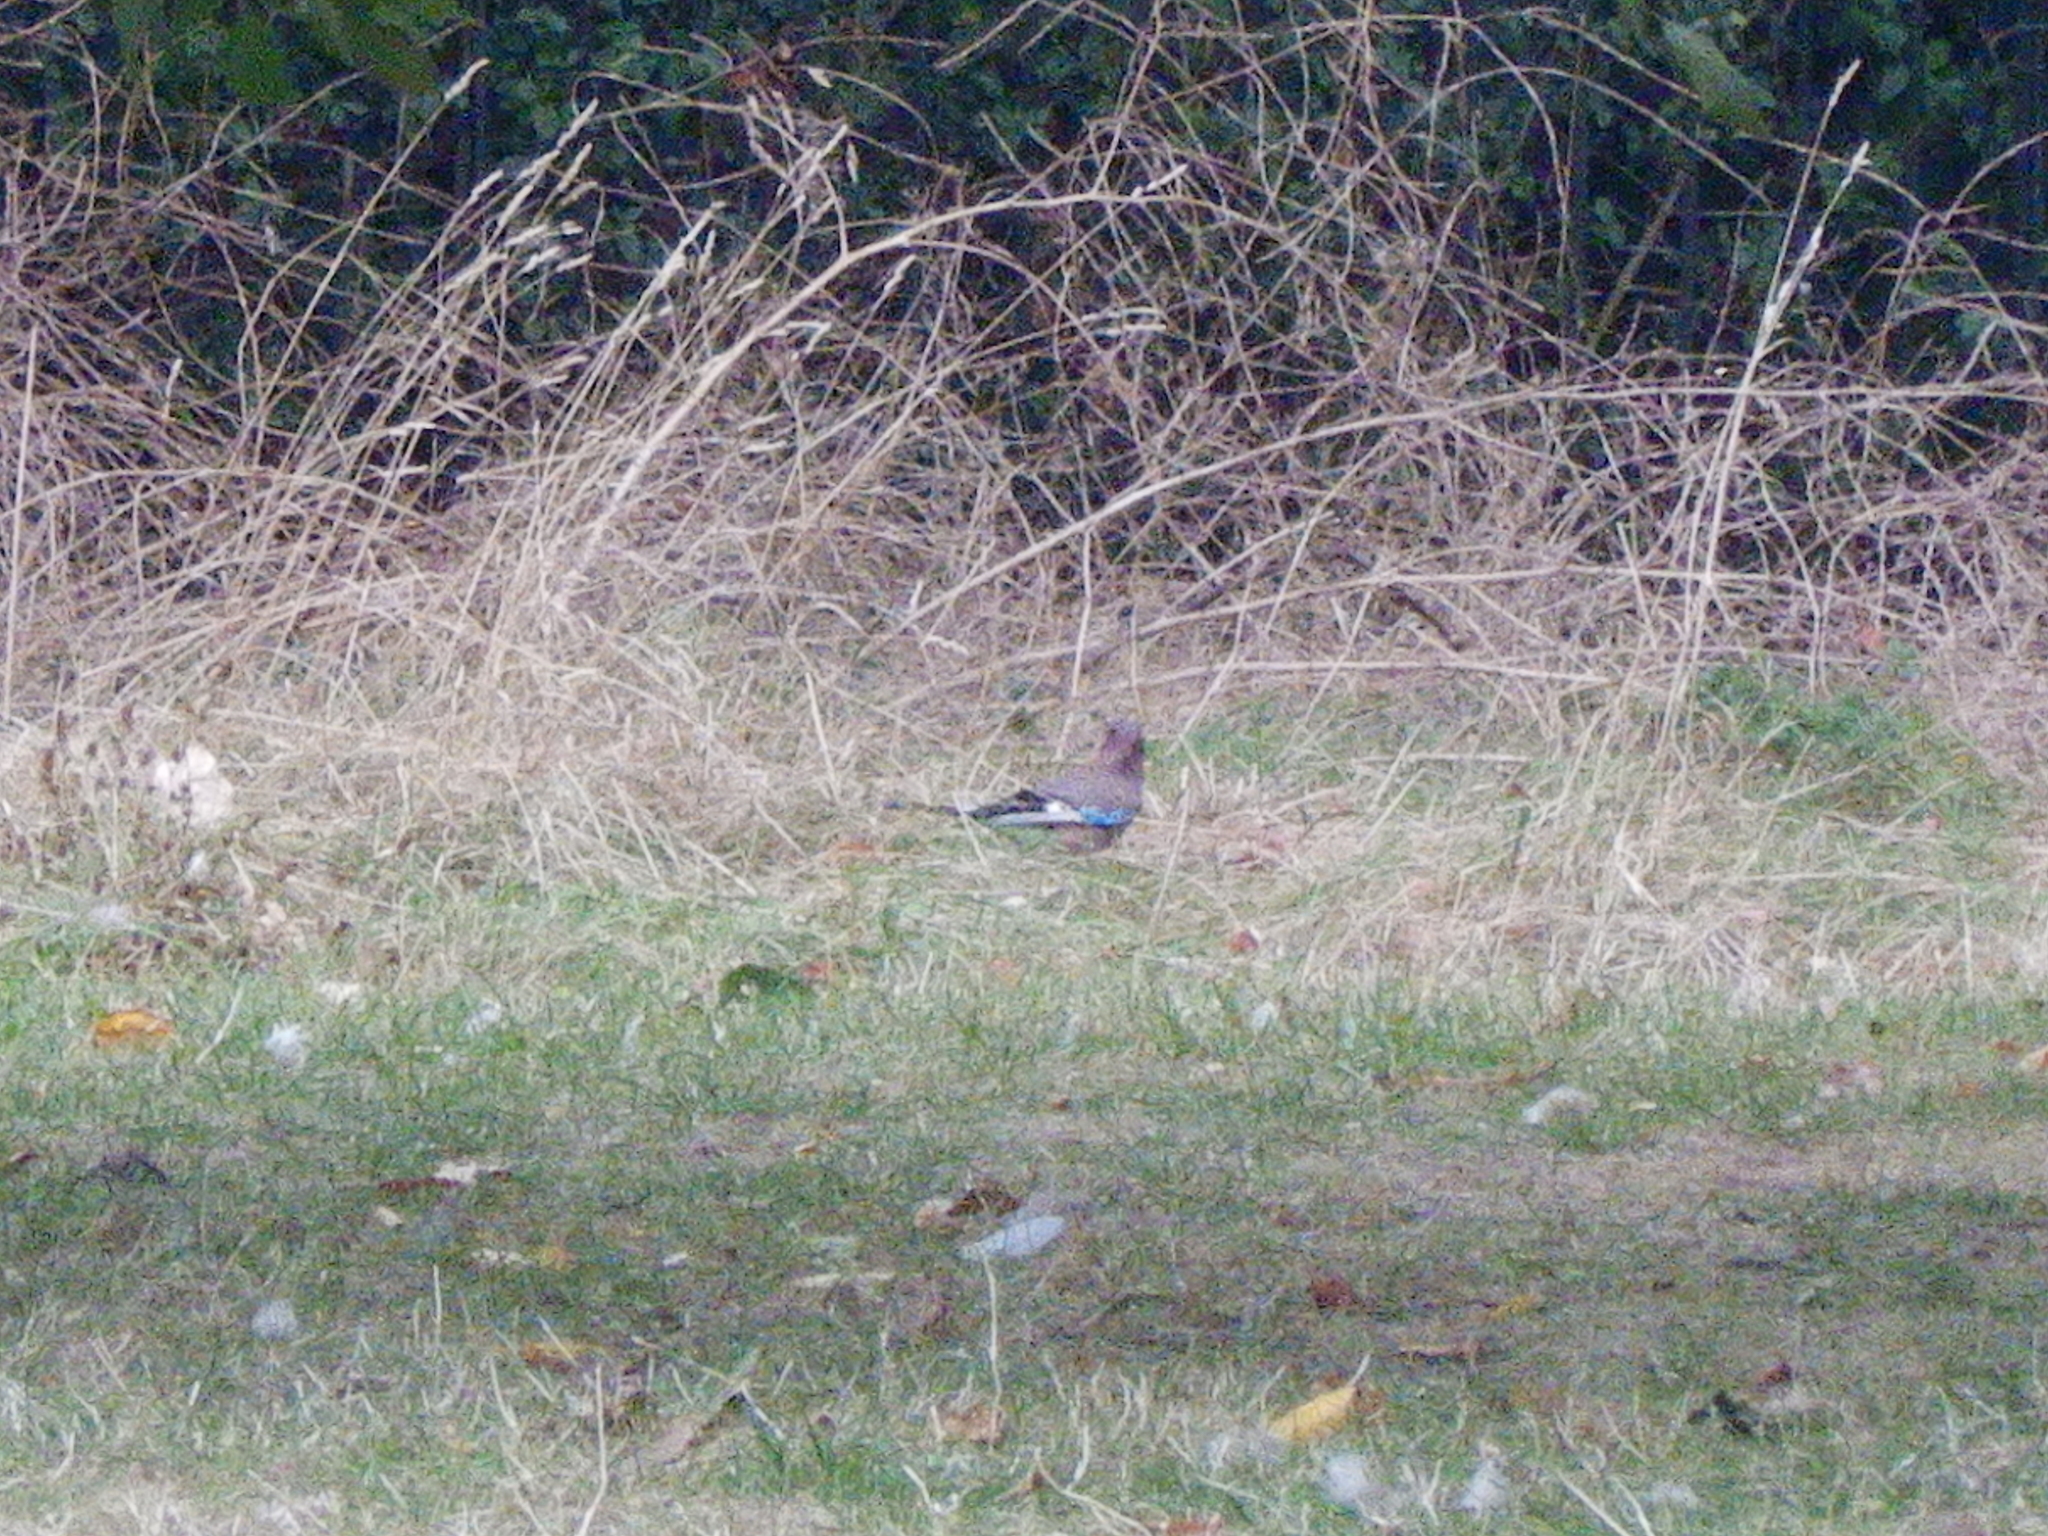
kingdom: Animalia
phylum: Chordata
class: Aves
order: Passeriformes
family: Corvidae
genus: Garrulus
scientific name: Garrulus glandarius
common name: Eurasian jay
